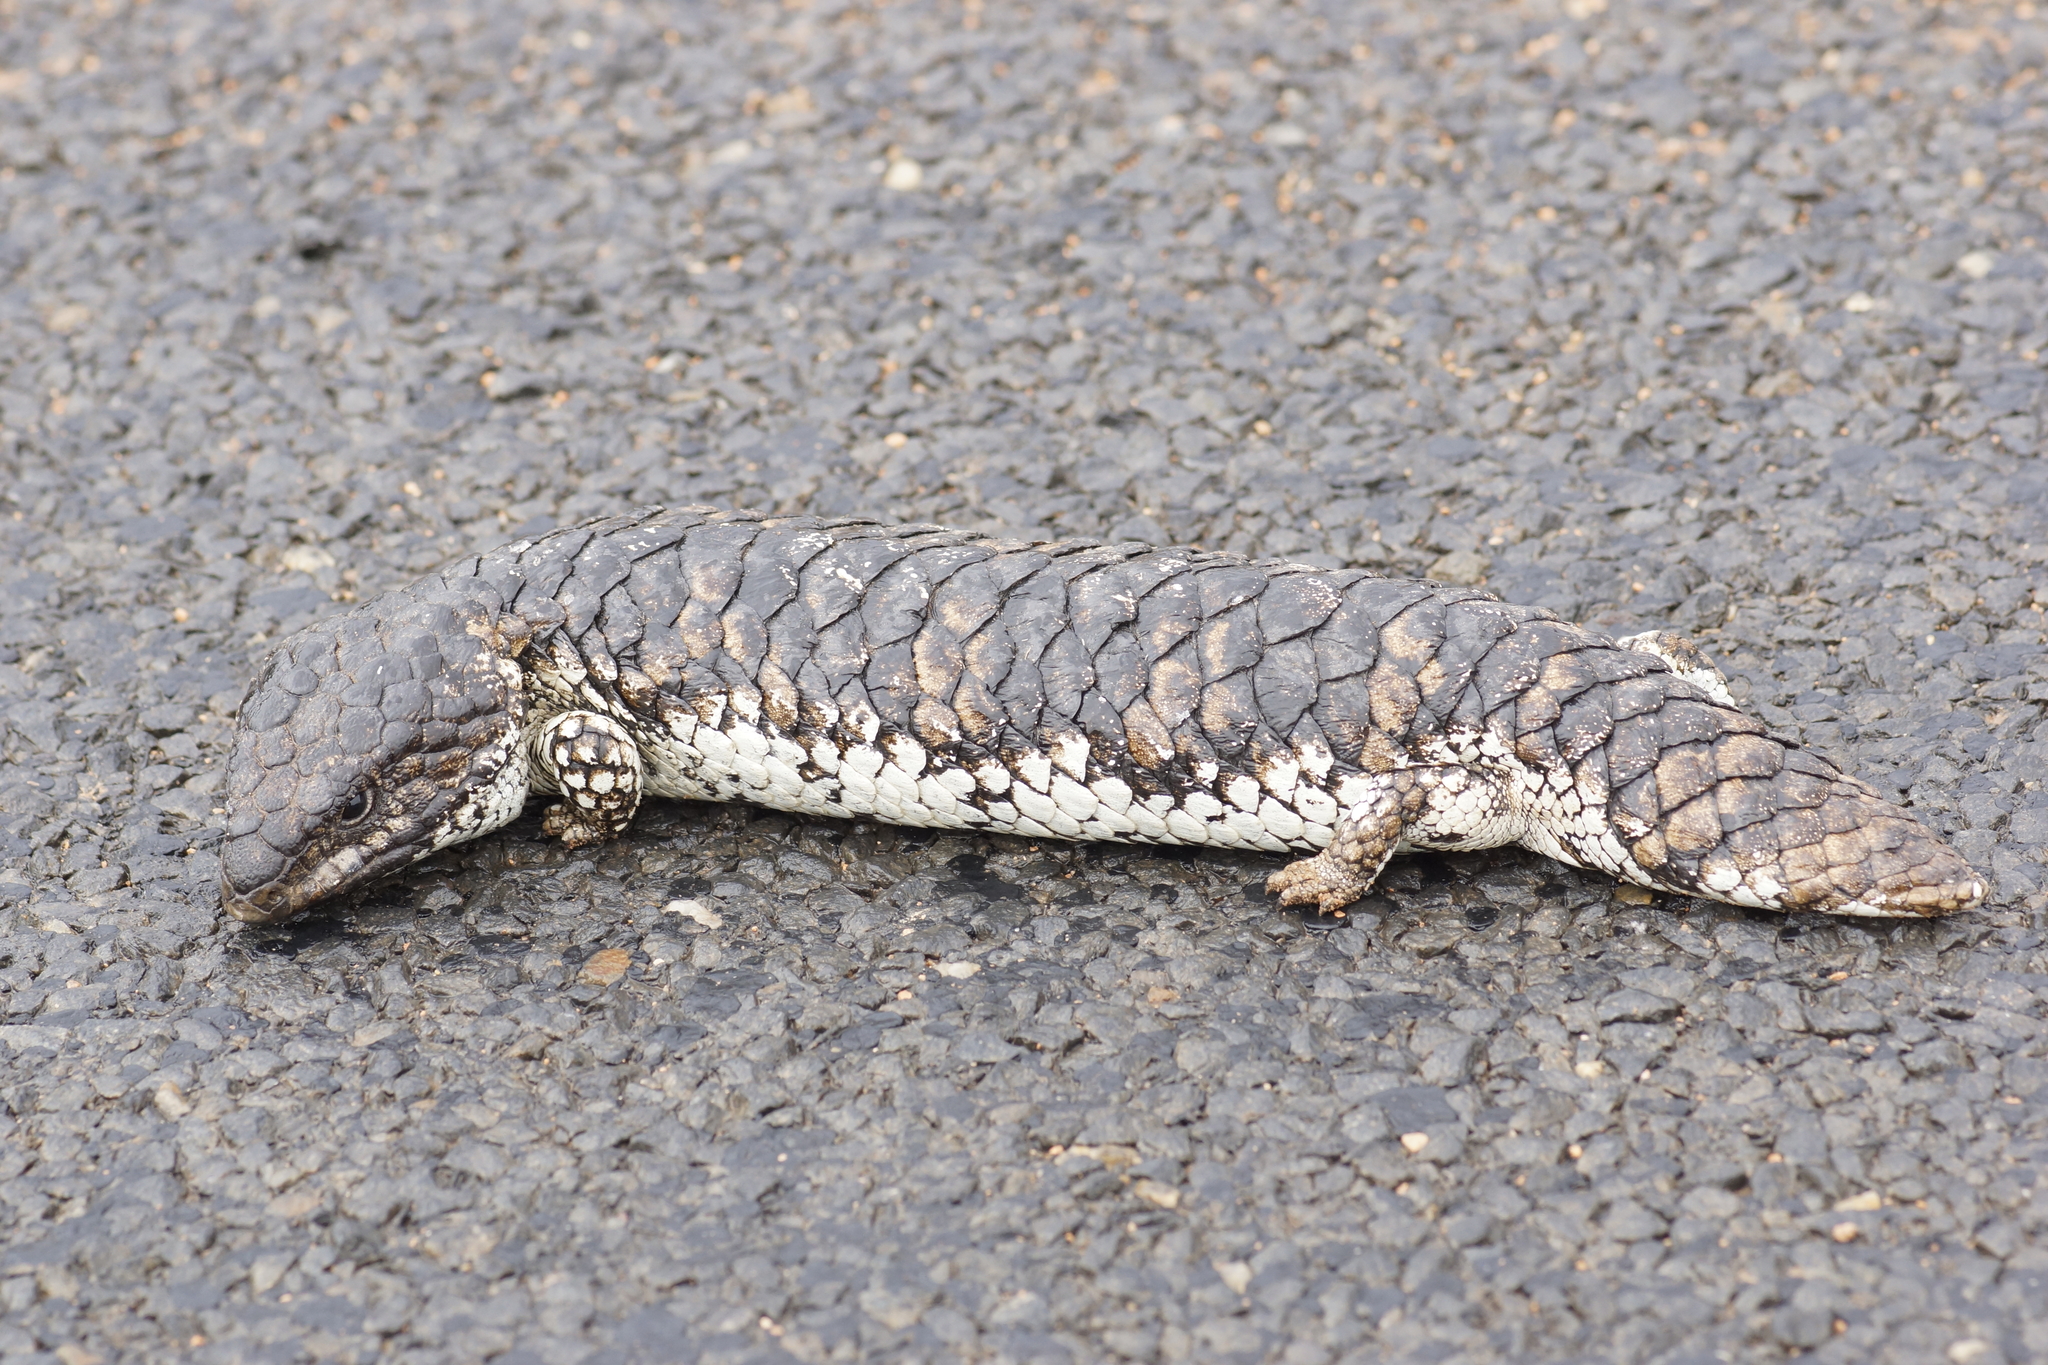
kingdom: Animalia
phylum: Chordata
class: Squamata
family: Scincidae
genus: Tiliqua
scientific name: Tiliqua rugosa
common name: Pinecone lizard
